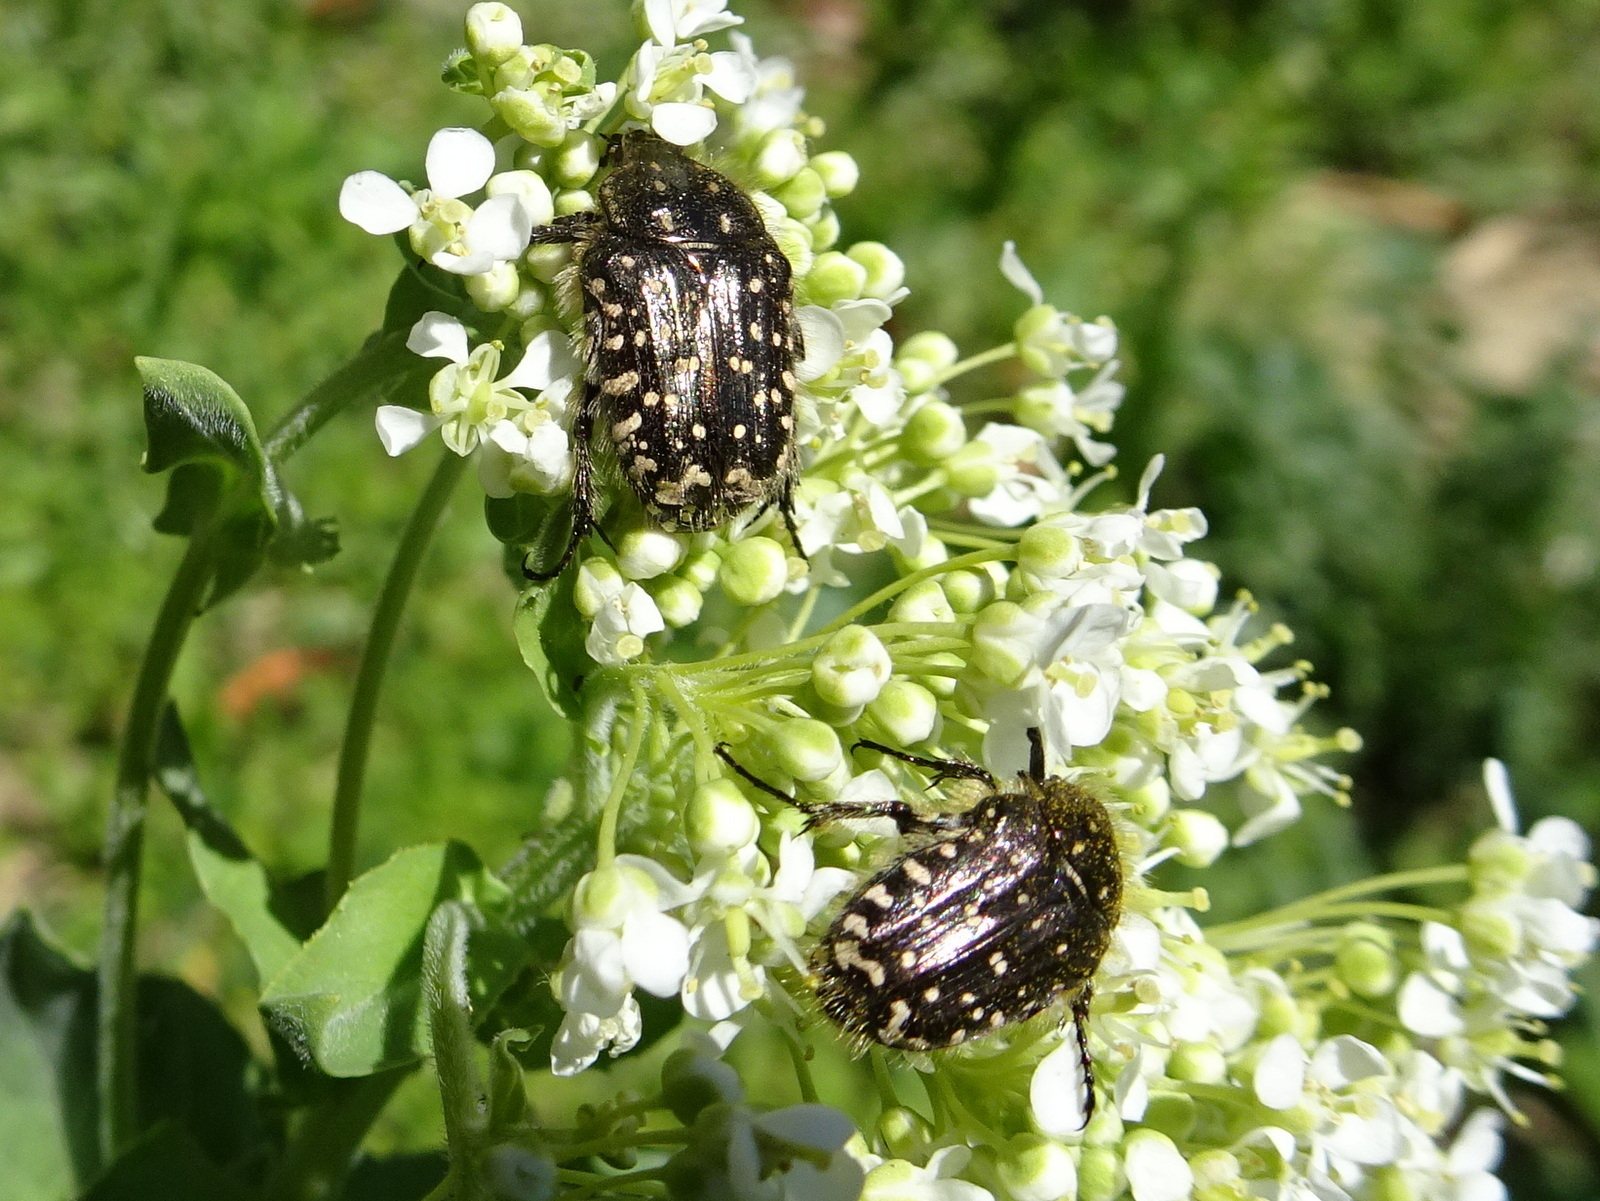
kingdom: Animalia
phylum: Arthropoda
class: Insecta
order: Coleoptera
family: Scarabaeidae
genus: Oxythyrea
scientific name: Oxythyrea funesta
